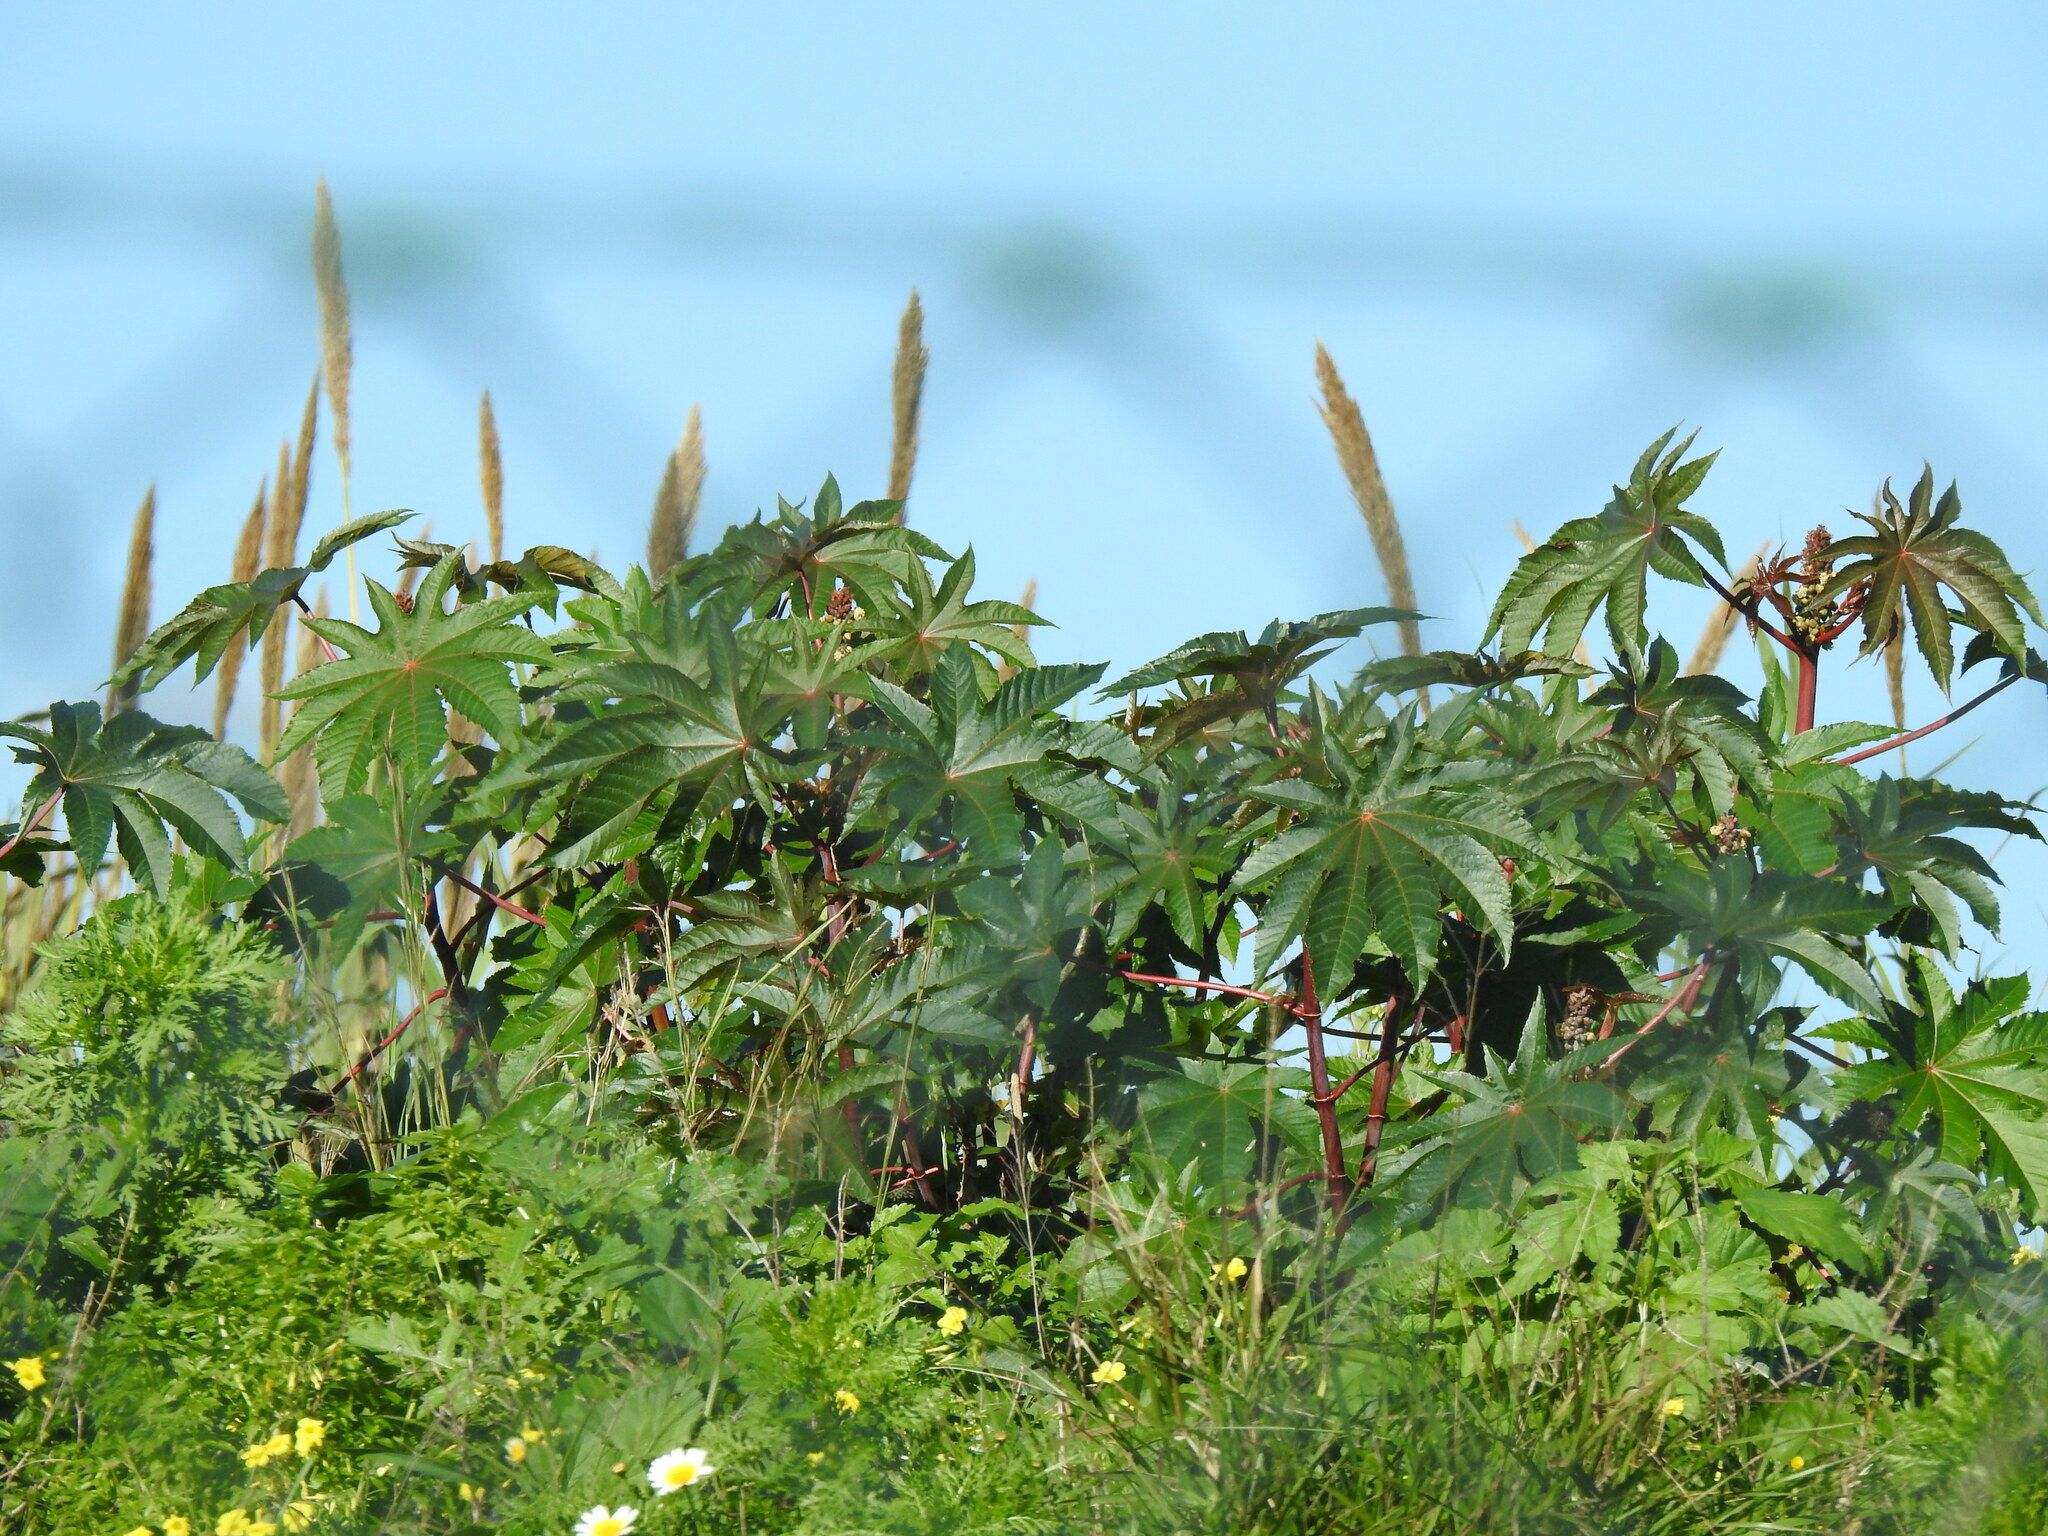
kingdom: Plantae
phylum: Tracheophyta
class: Magnoliopsida
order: Malpighiales
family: Euphorbiaceae
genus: Ricinus
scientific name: Ricinus communis
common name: Castor-oil-plant
